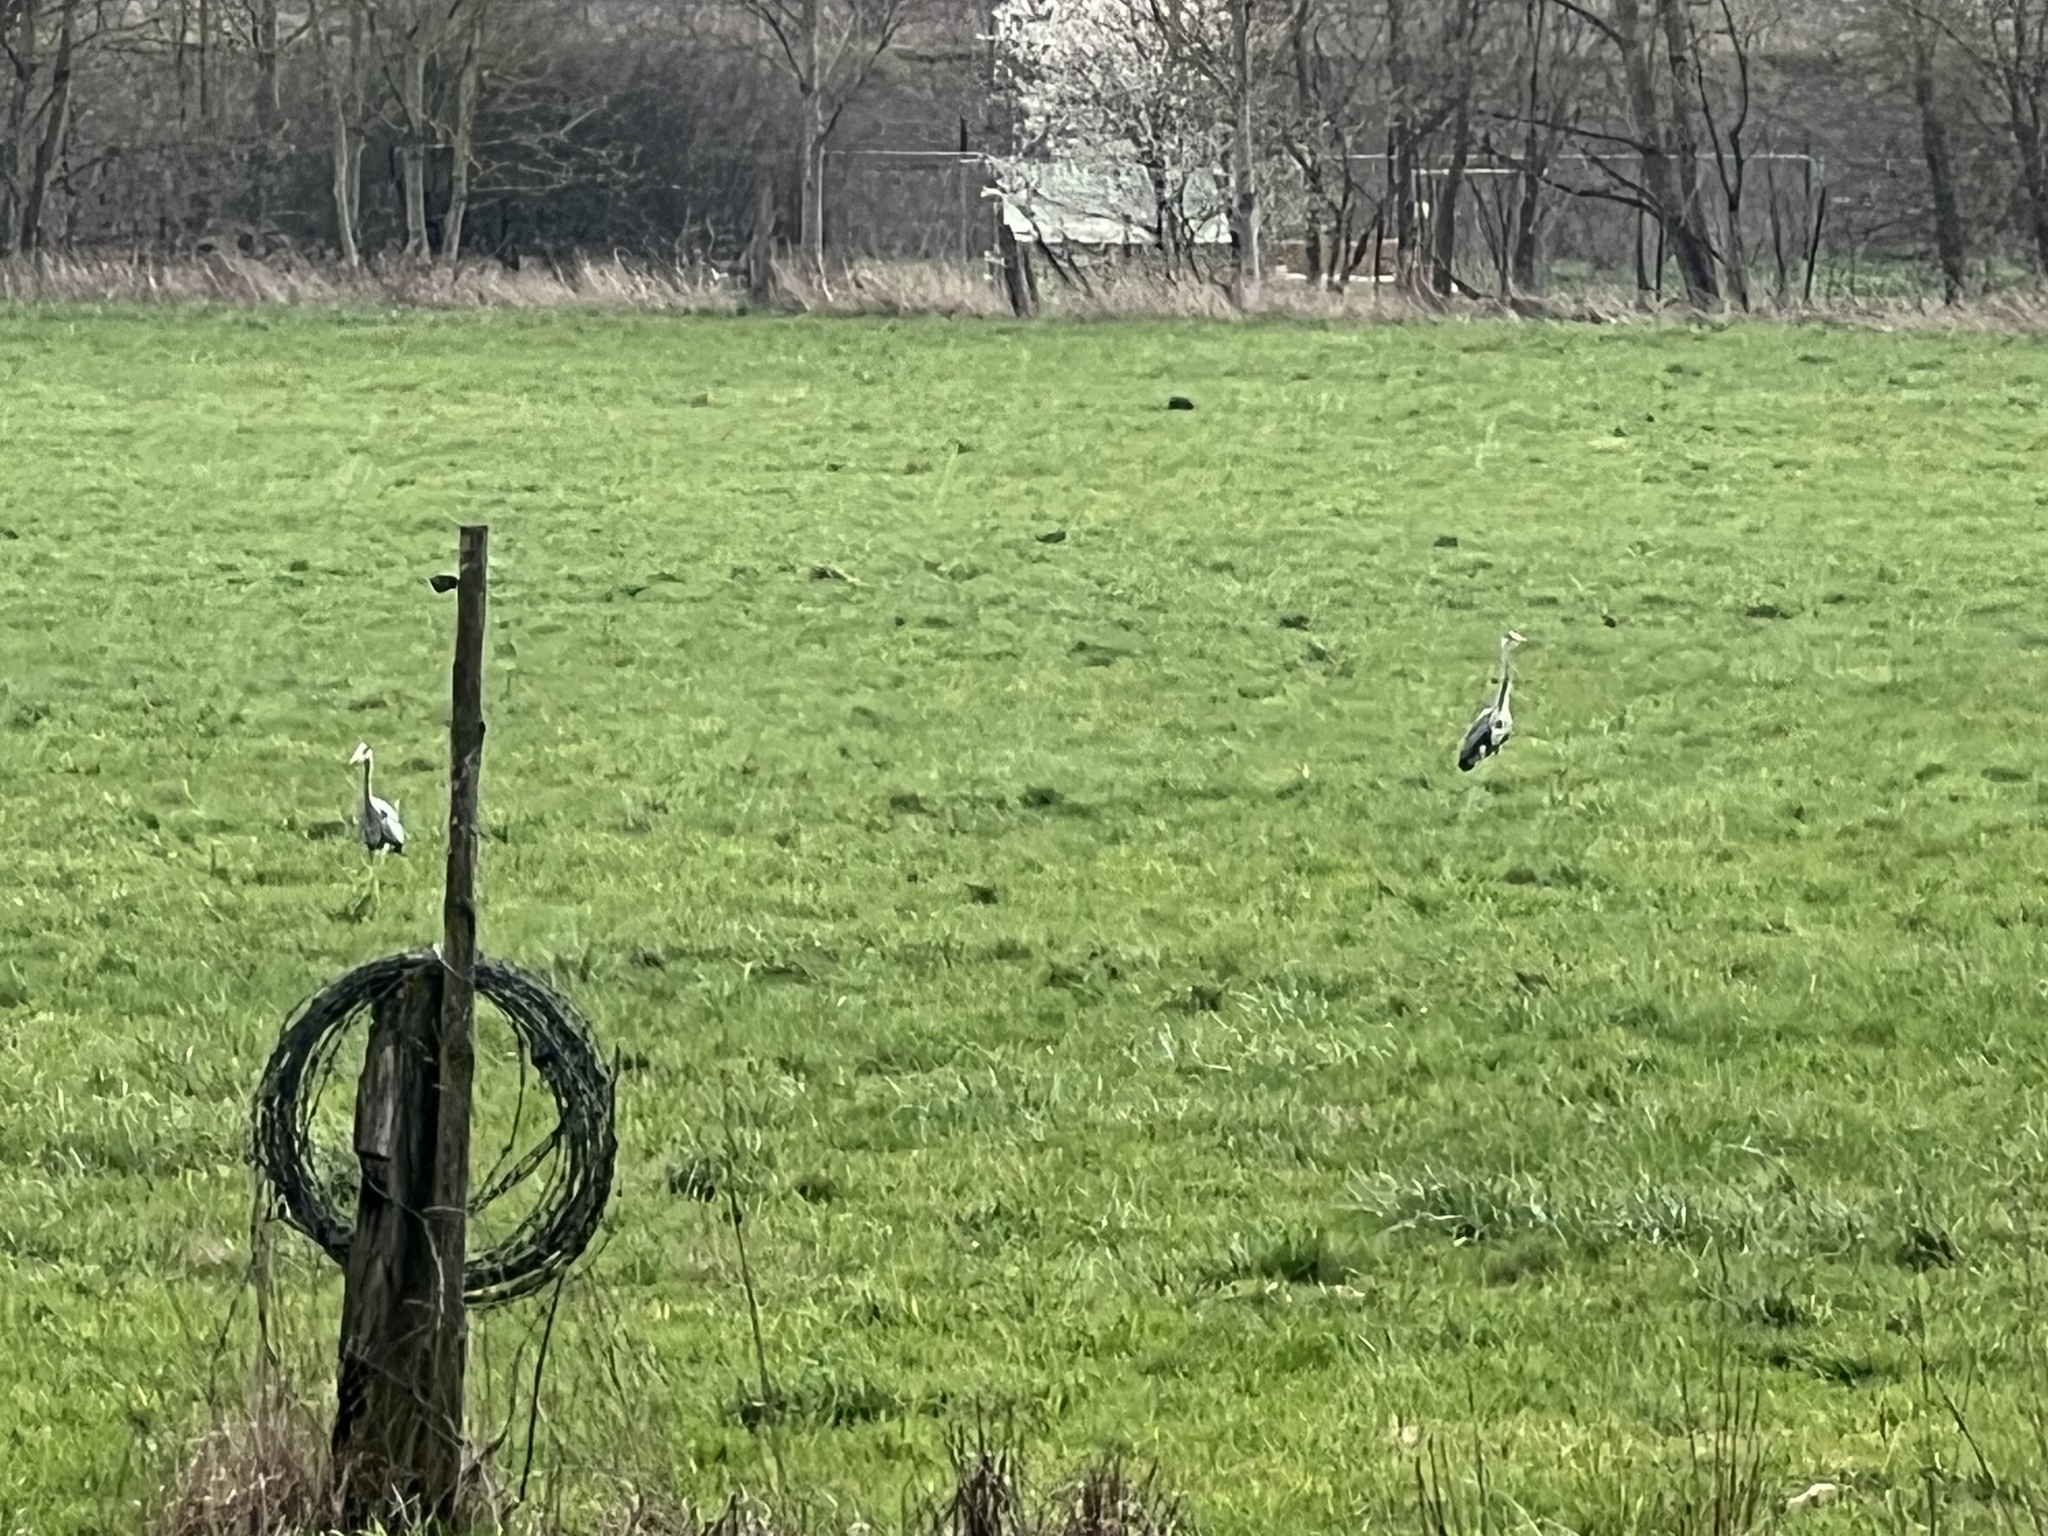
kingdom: Animalia
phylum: Chordata
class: Aves
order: Pelecaniformes
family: Ardeidae
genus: Ardea
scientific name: Ardea cinerea
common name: Grey heron
